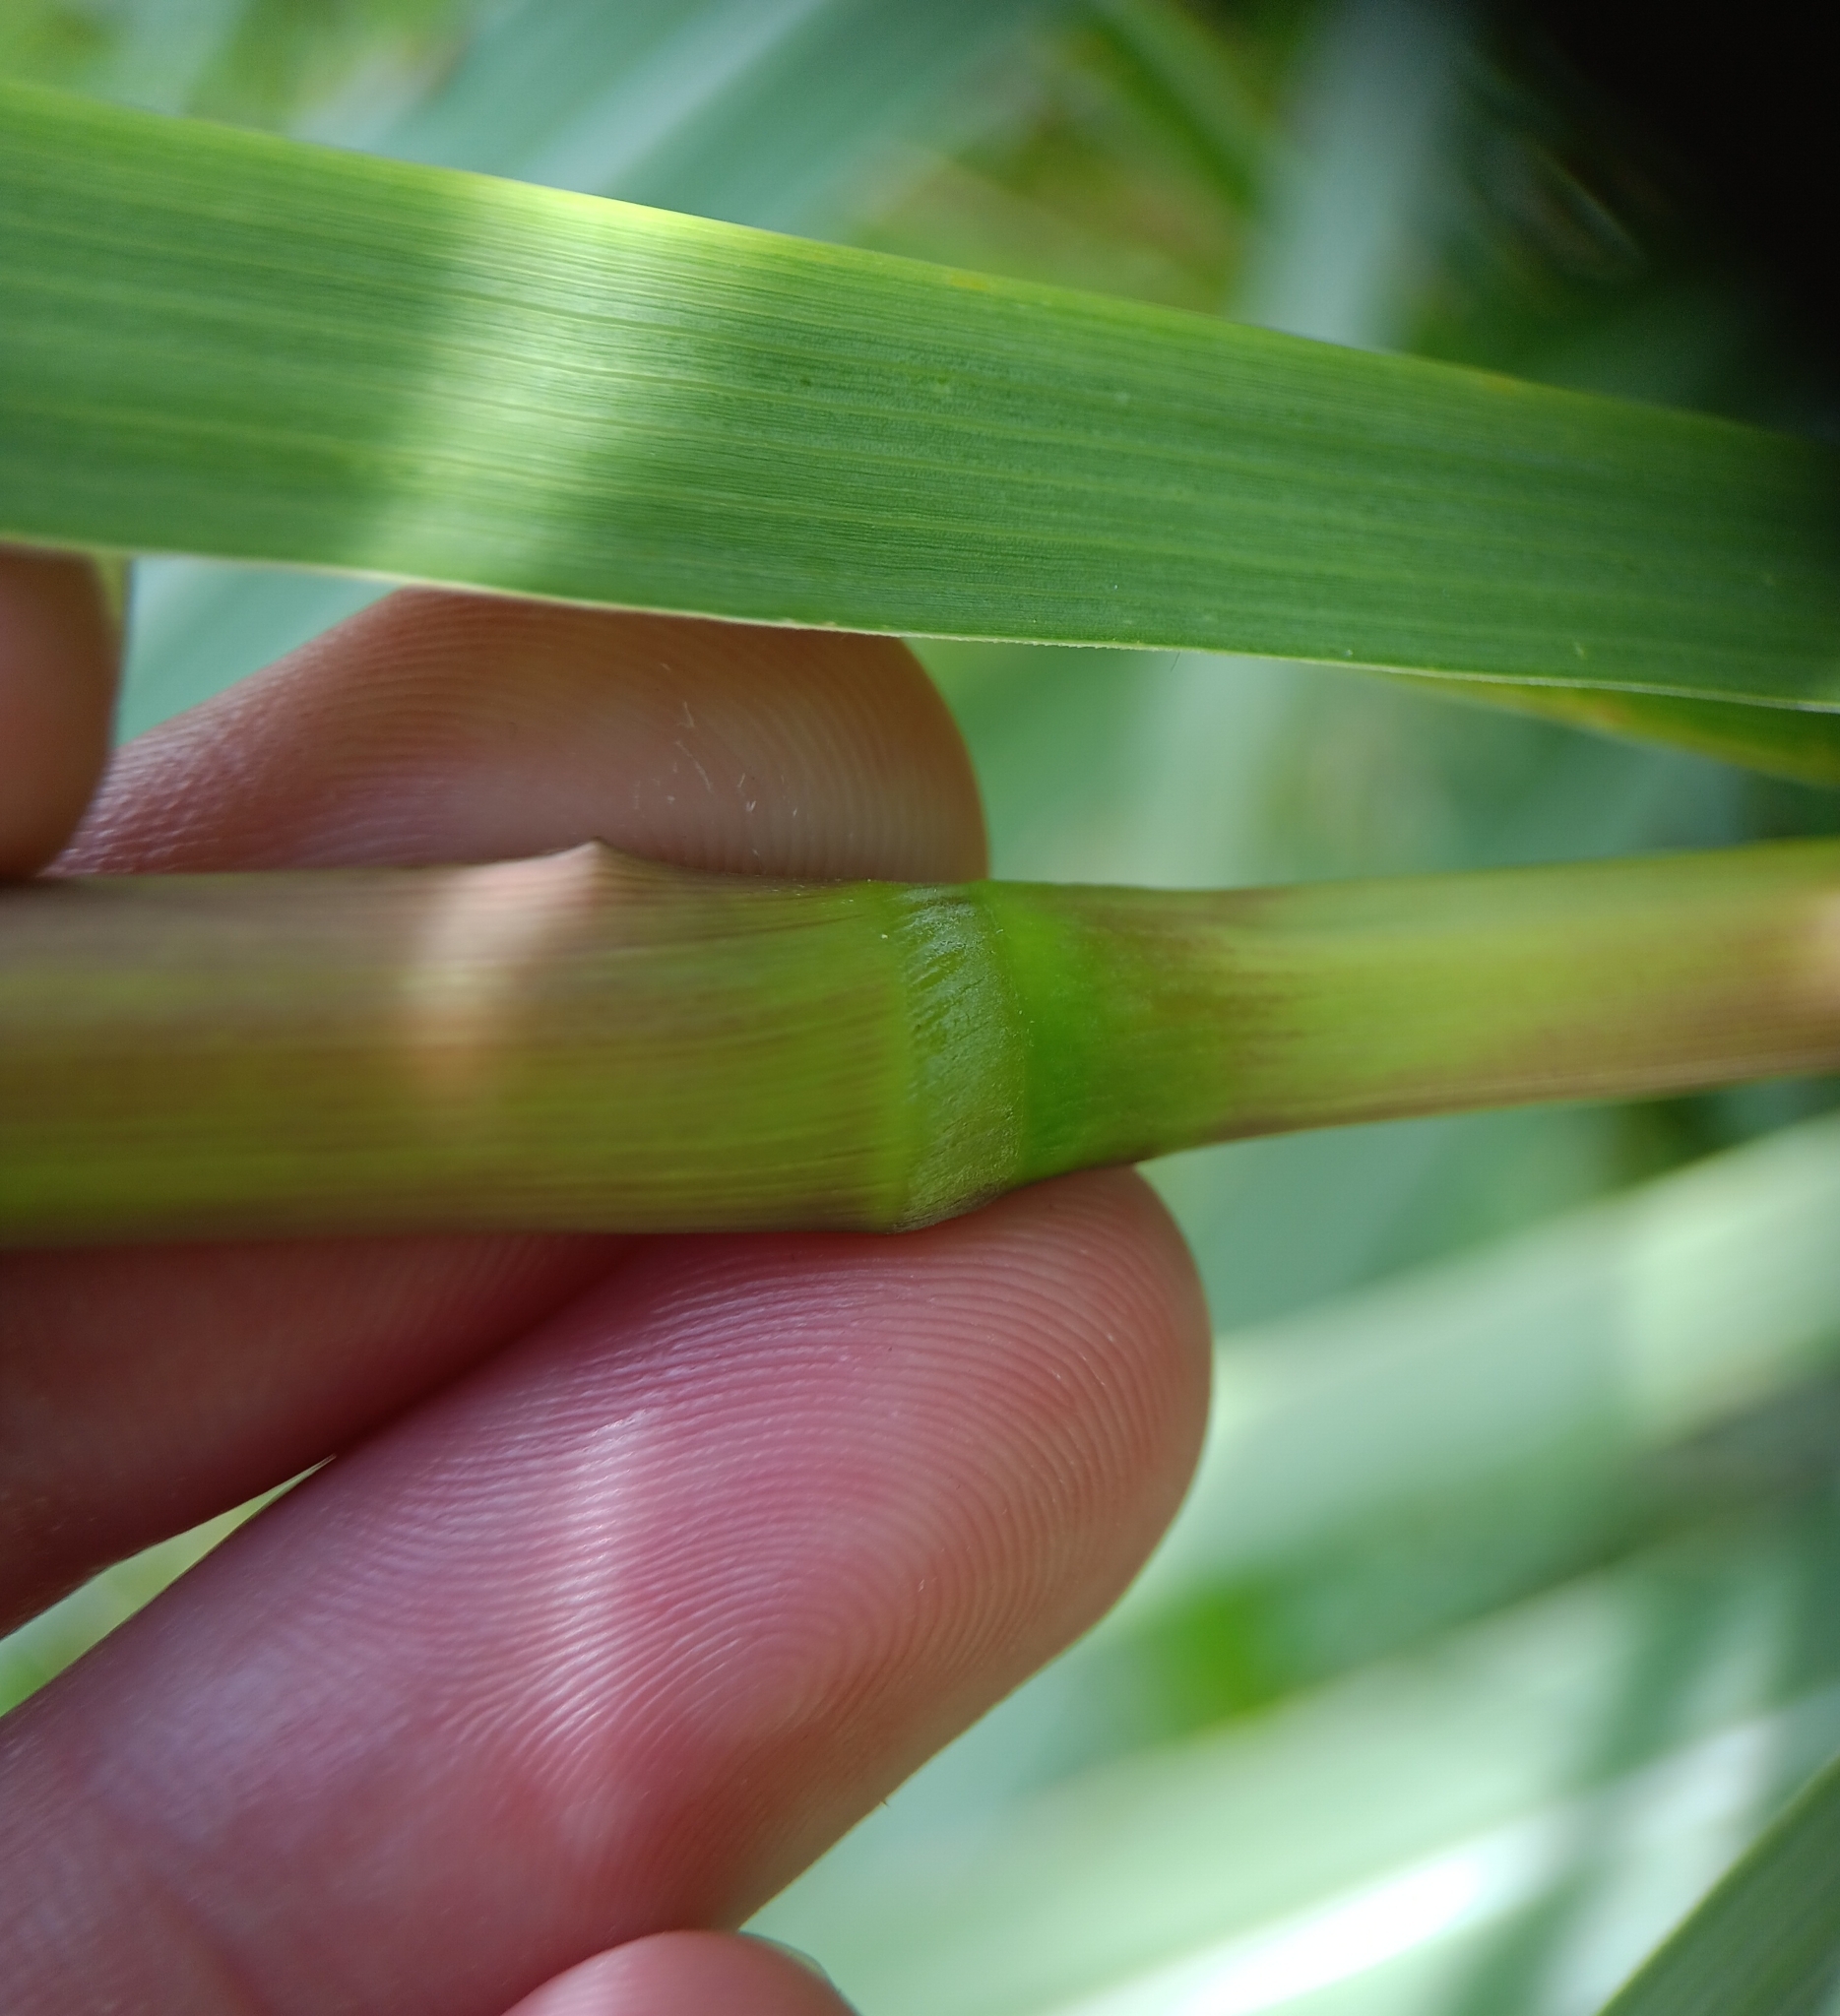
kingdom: Plantae
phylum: Tracheophyta
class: Liliopsida
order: Poales
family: Poaceae
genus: Tripsacum
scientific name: Tripsacum dactyloides
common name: Buffalo-grass
